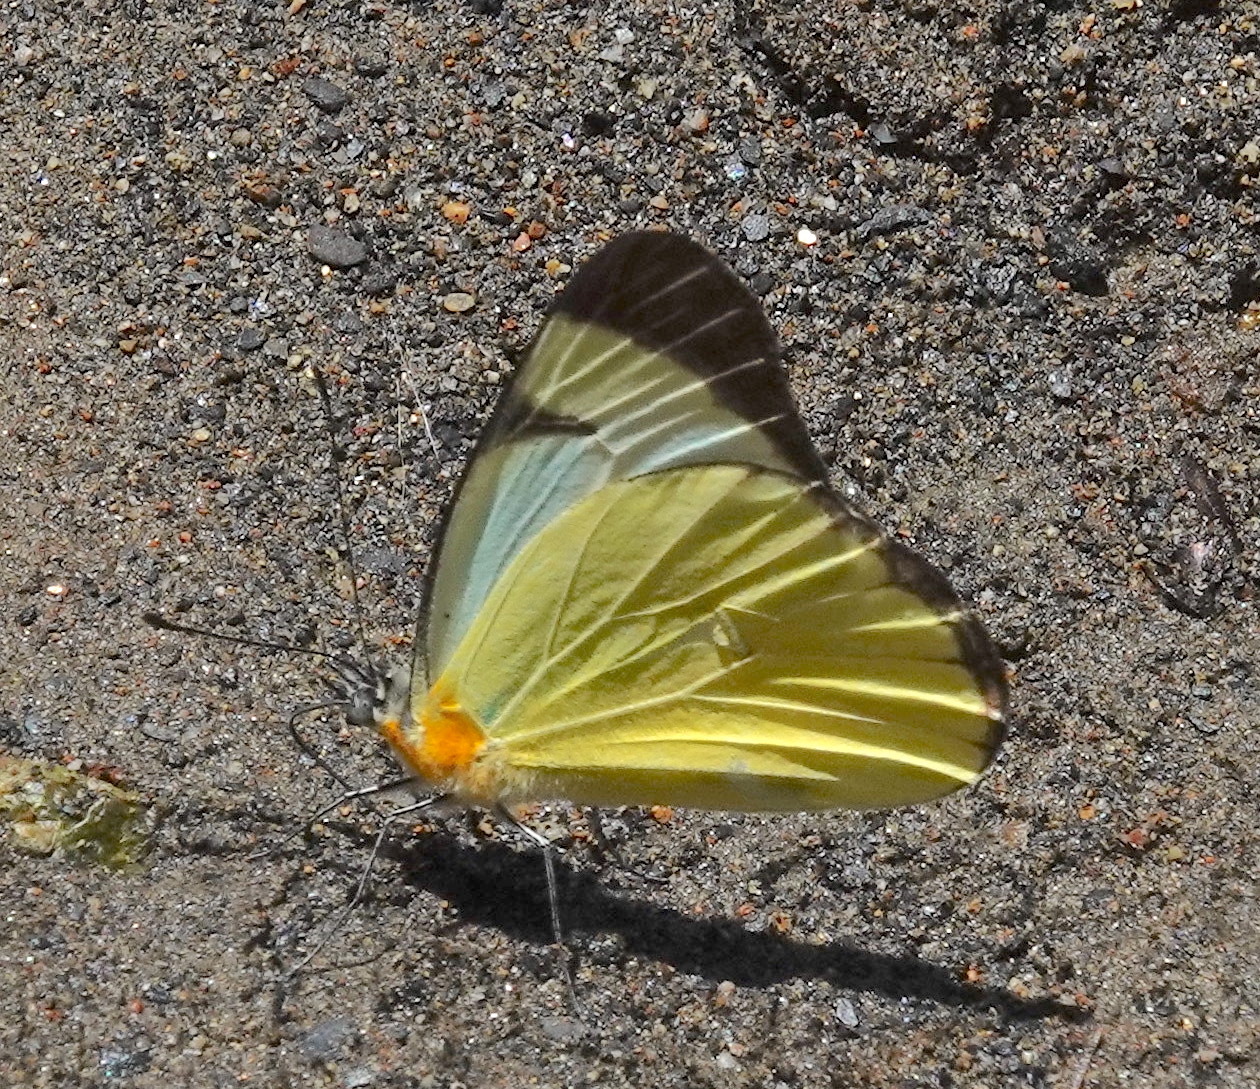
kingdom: Animalia
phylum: Arthropoda
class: Insecta
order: Lepidoptera
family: Pieridae
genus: Melete
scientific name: Melete lycimnia
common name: Common melwhite
